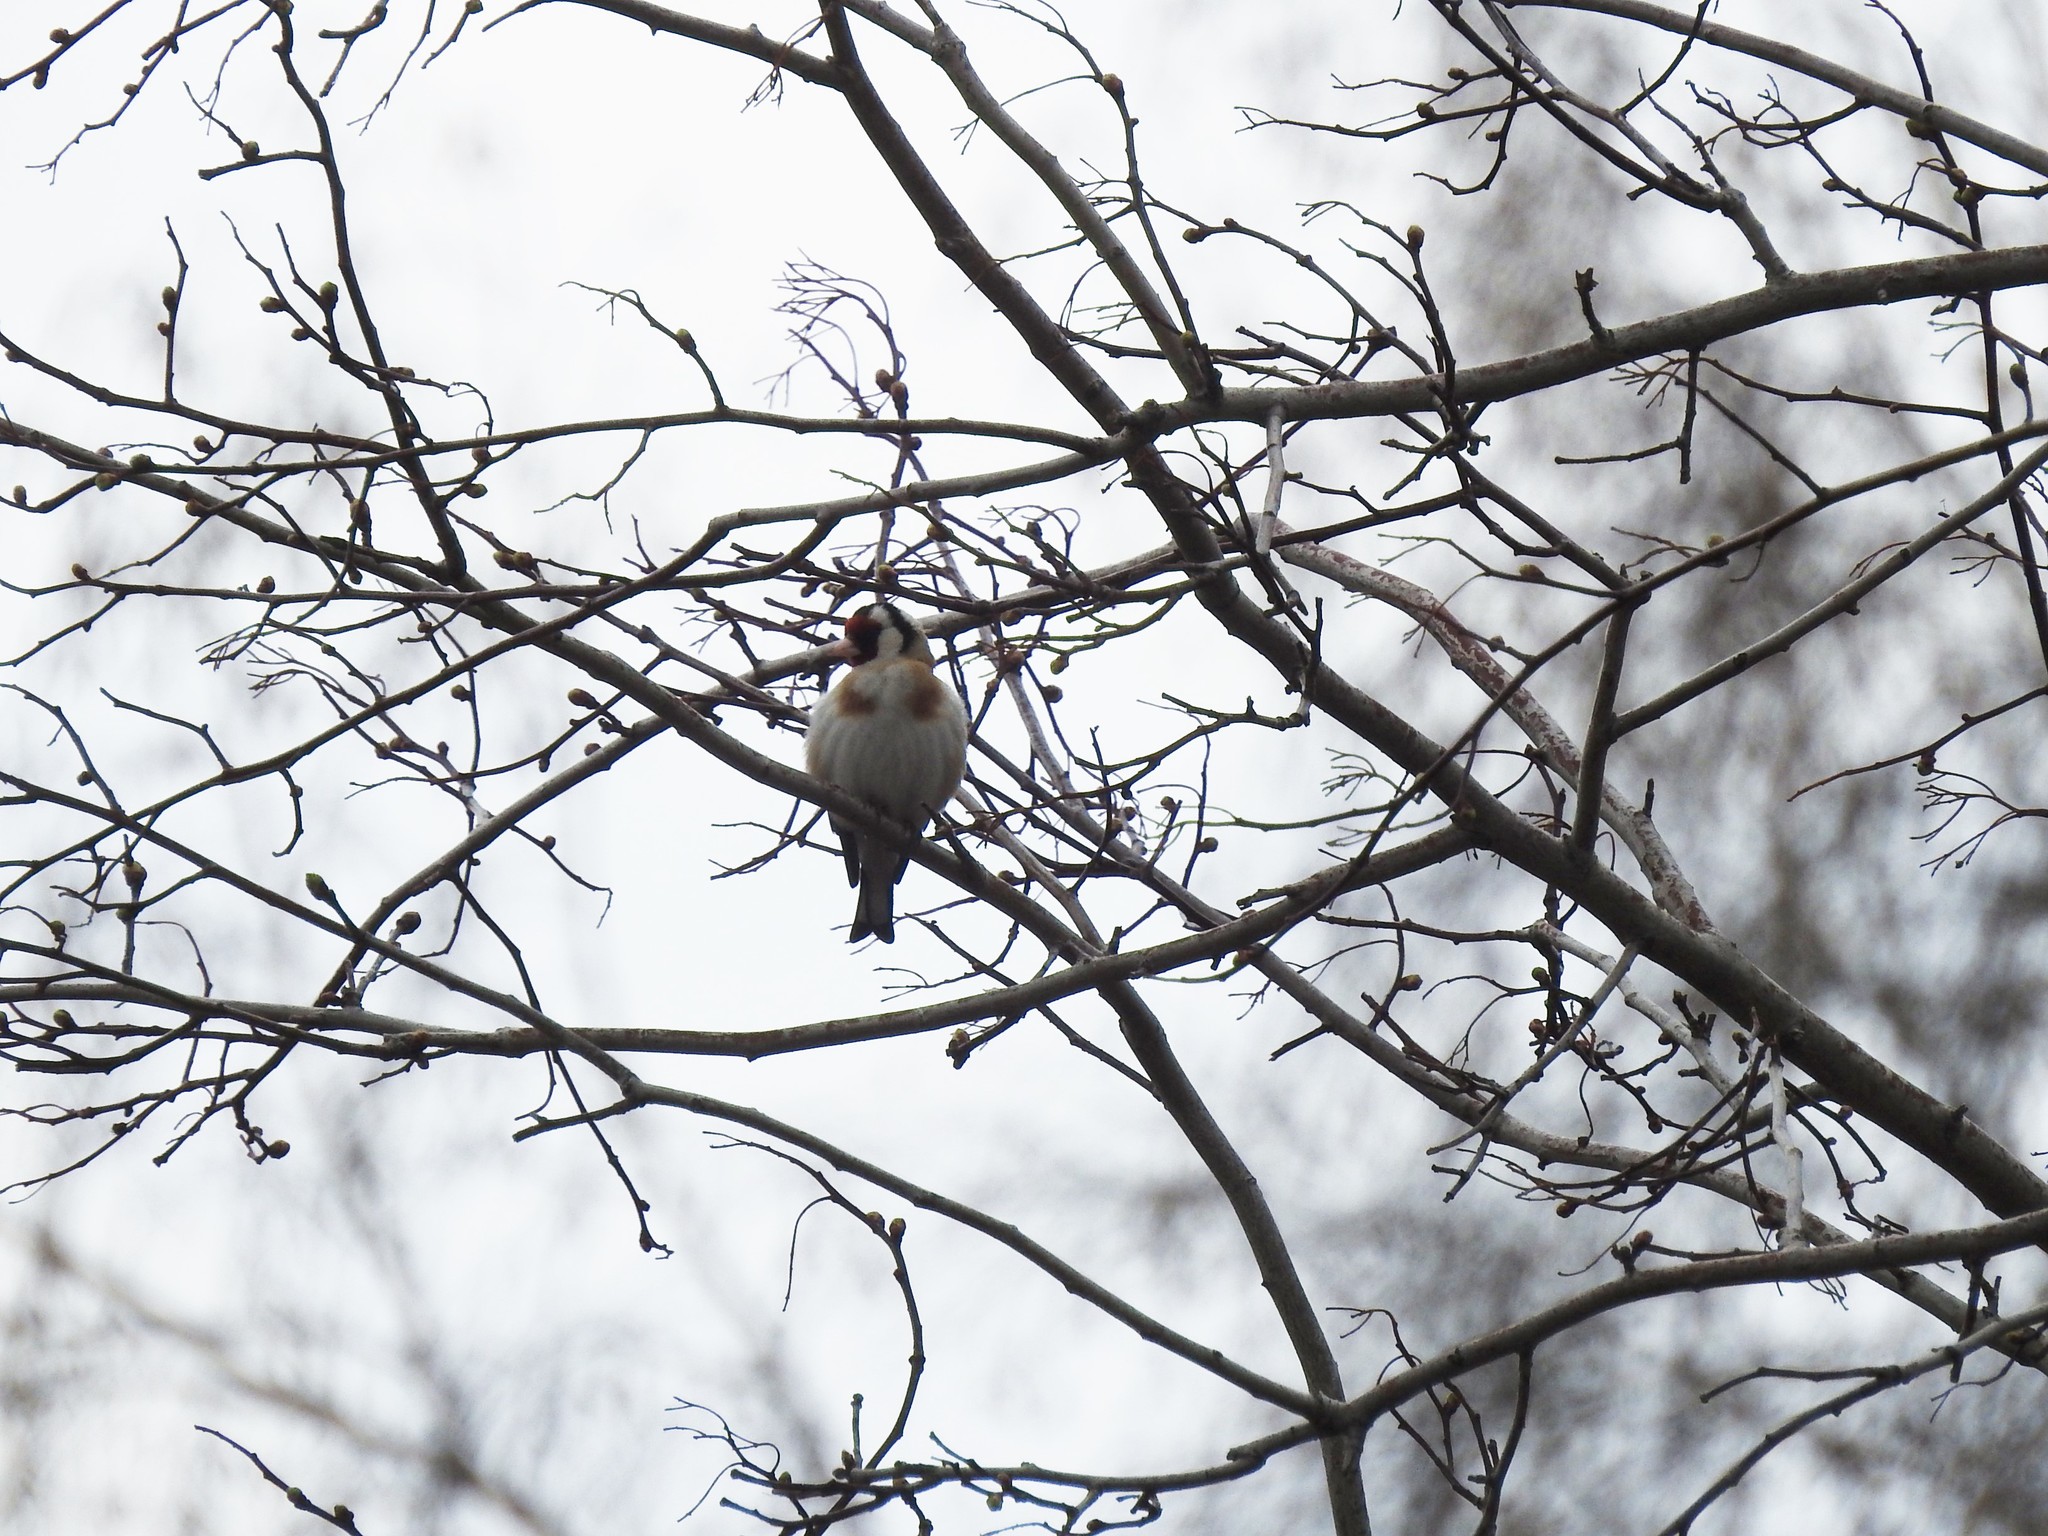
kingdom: Animalia
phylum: Chordata
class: Aves
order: Passeriformes
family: Fringillidae
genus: Carduelis
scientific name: Carduelis carduelis
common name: European goldfinch
